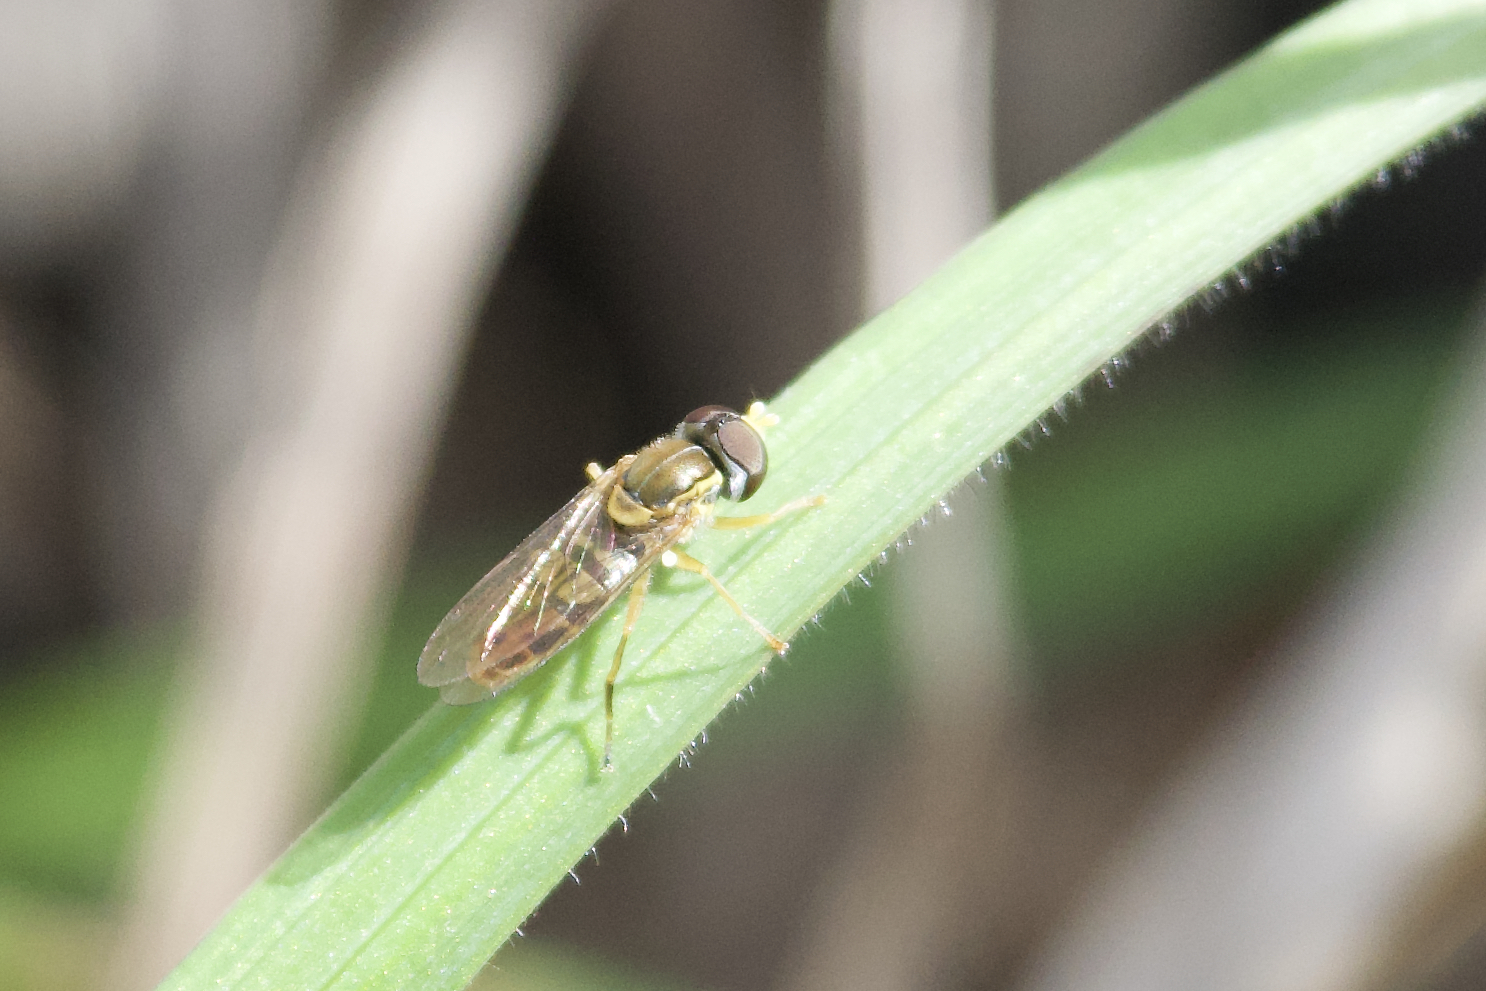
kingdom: Animalia
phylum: Arthropoda
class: Insecta
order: Diptera
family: Syrphidae
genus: Toxomerus
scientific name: Toxomerus marginatus
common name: Syrphid fly
